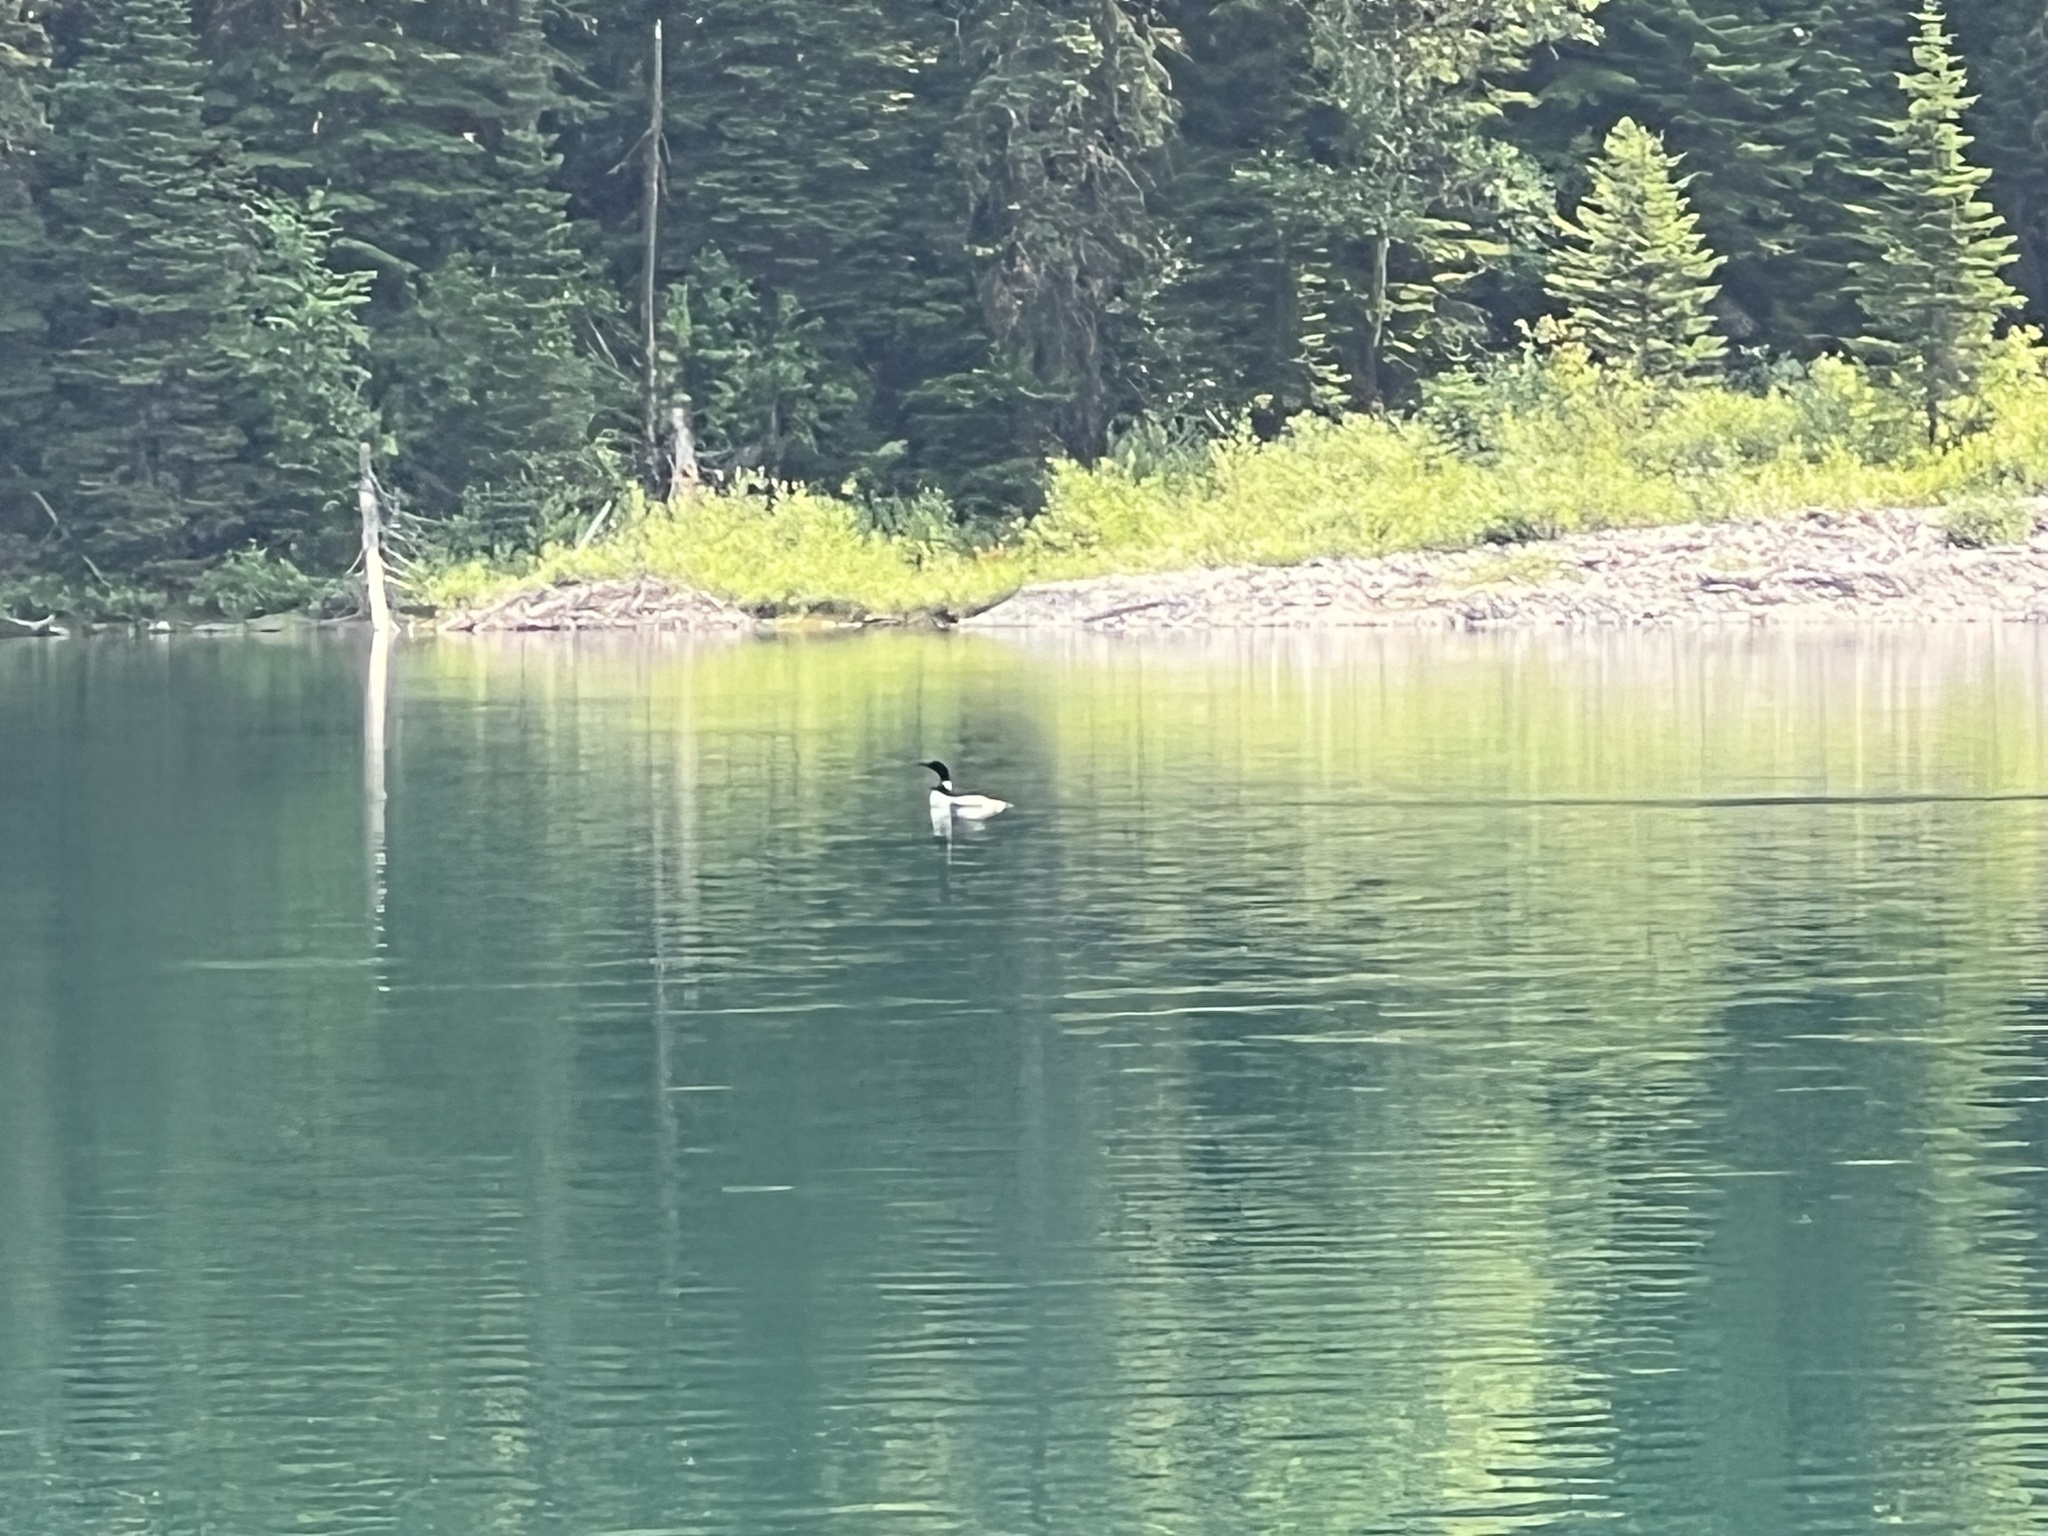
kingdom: Animalia
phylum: Chordata
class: Aves
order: Gaviiformes
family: Gaviidae
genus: Gavia
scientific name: Gavia immer
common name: Common loon
